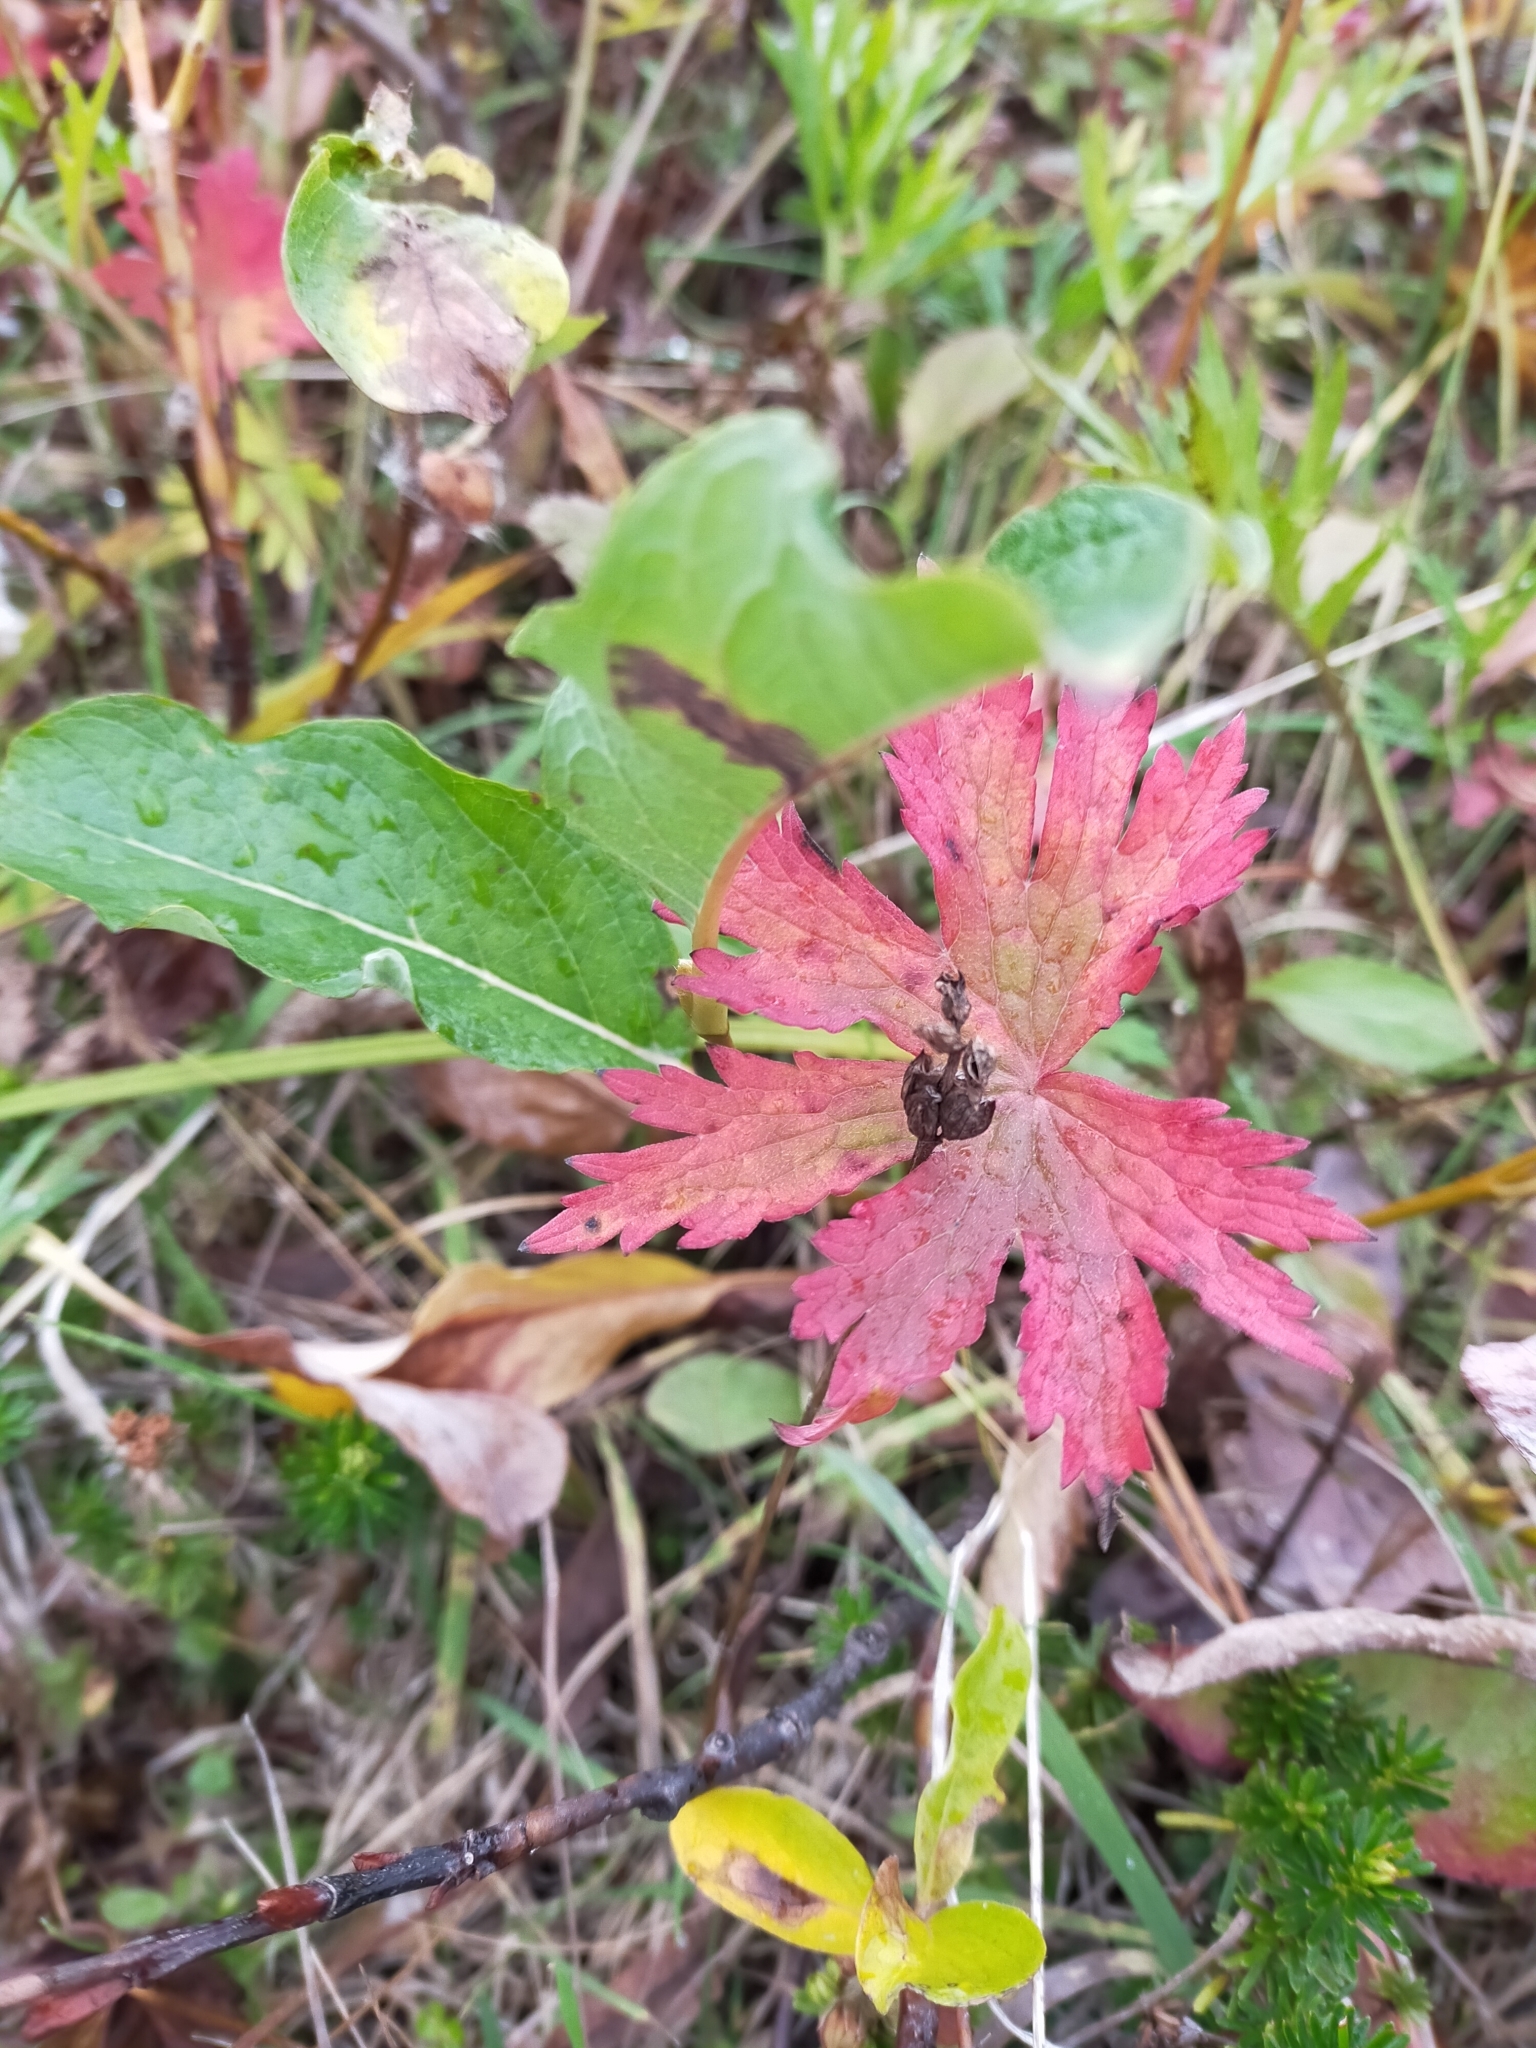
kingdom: Plantae
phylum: Tracheophyta
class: Magnoliopsida
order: Geraniales
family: Geraniaceae
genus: Geranium
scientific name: Geranium erianthum
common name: Northern crane's-bill
